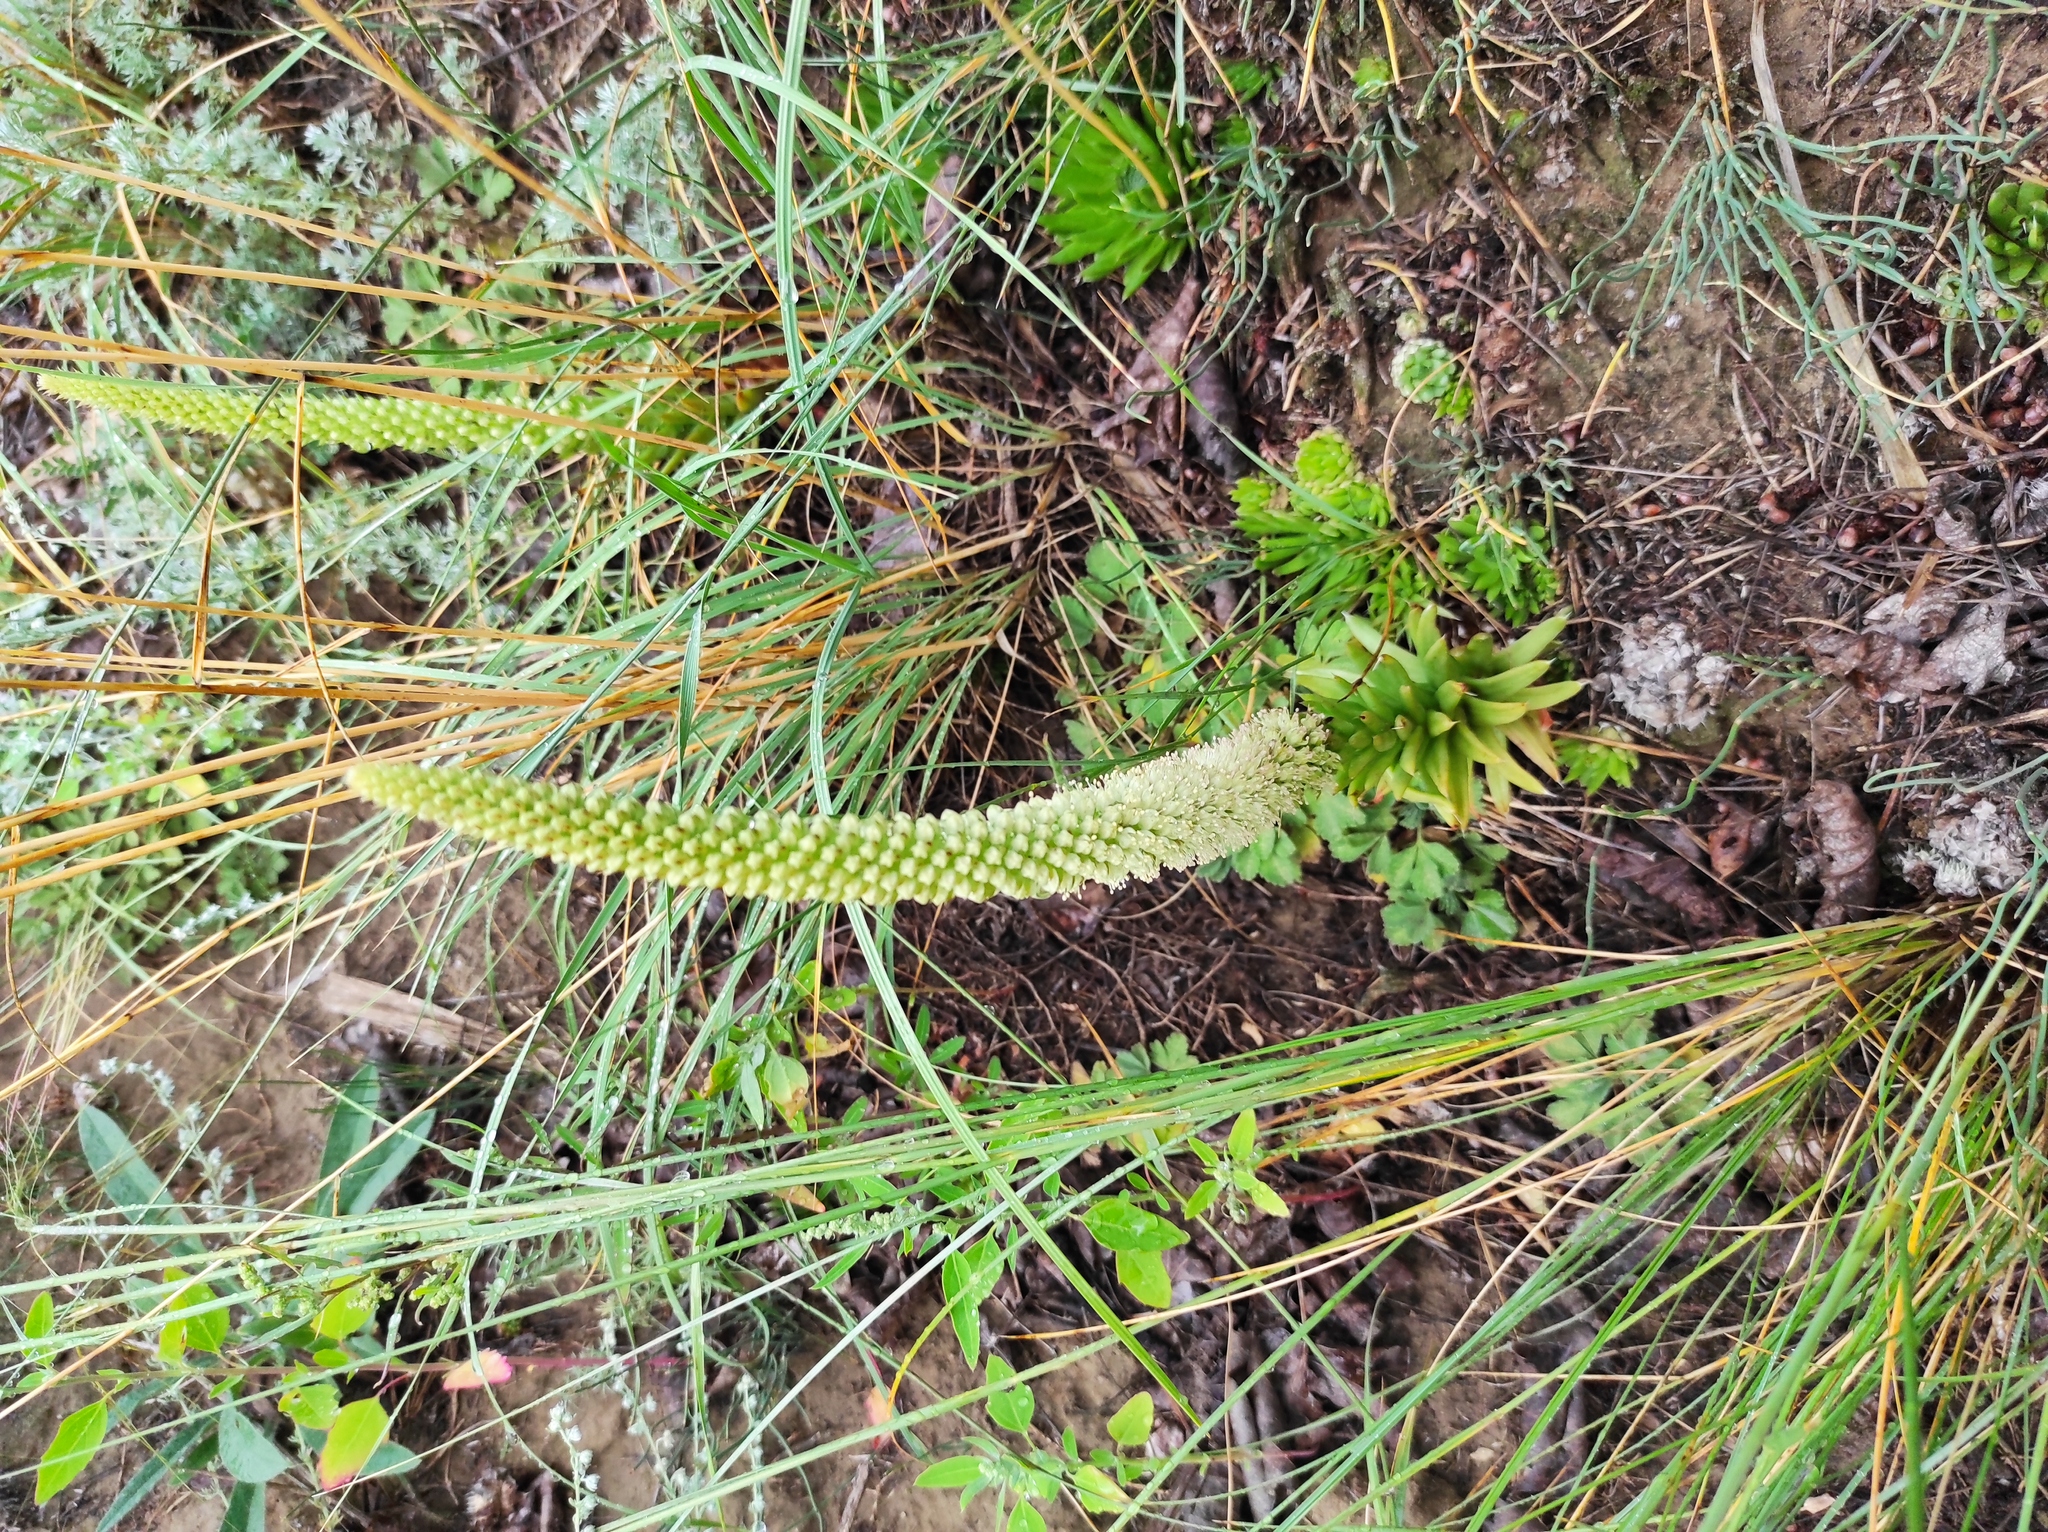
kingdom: Plantae
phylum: Tracheophyta
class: Magnoliopsida
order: Saxifragales
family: Crassulaceae
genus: Orostachys
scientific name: Orostachys spinosa
